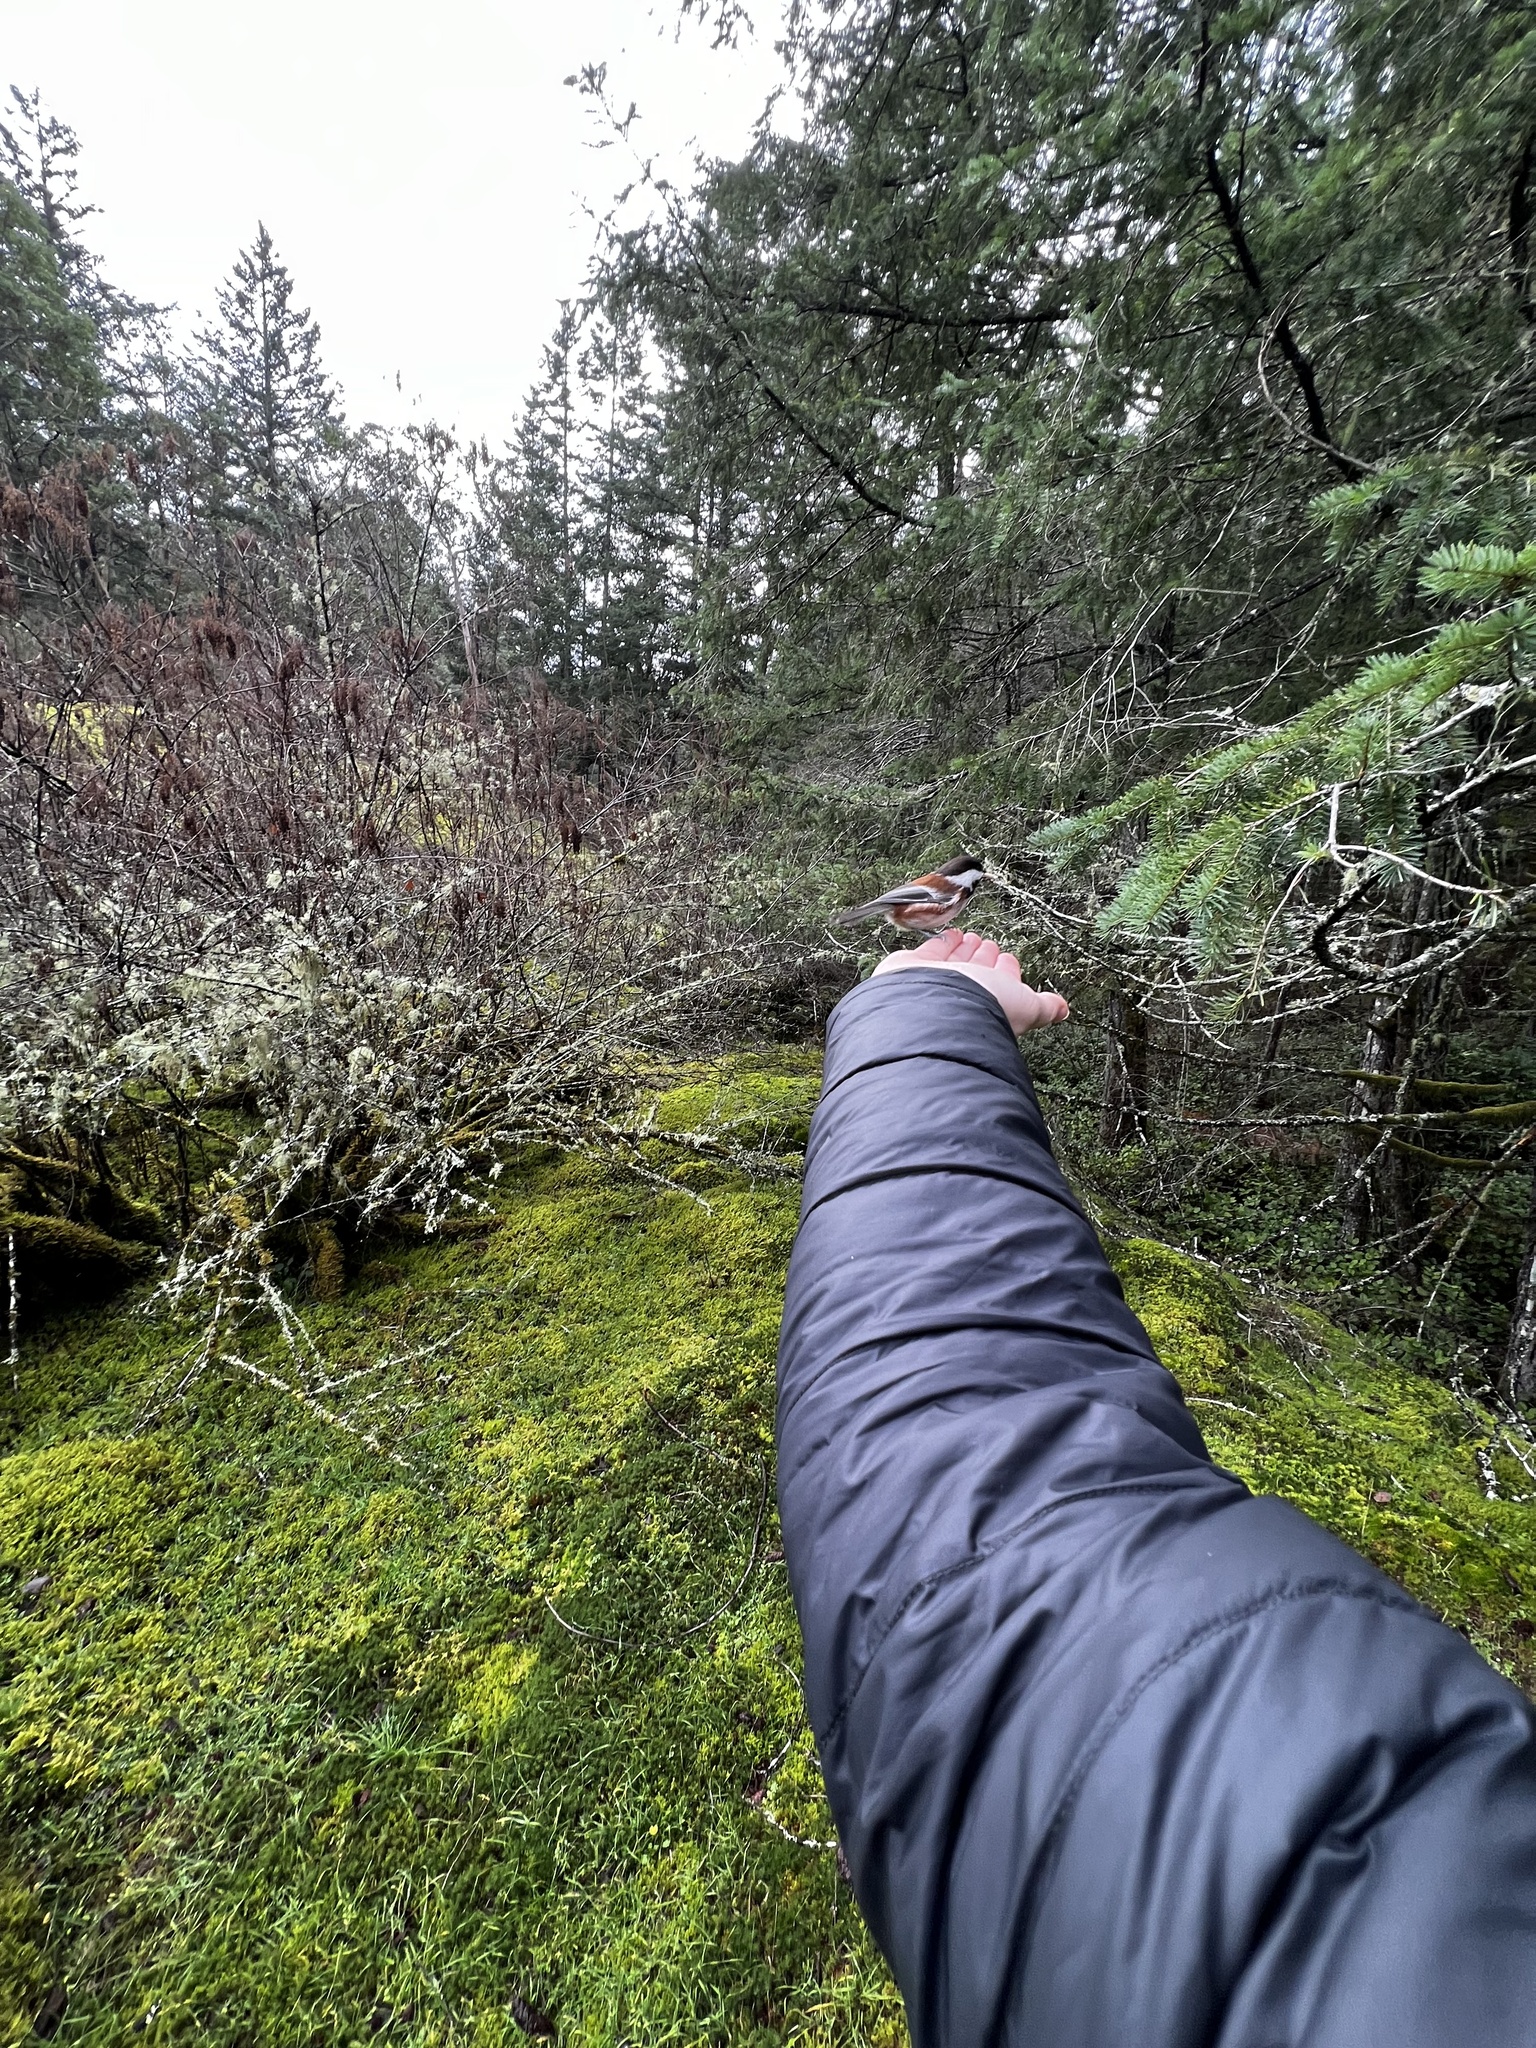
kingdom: Animalia
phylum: Chordata
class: Aves
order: Passeriformes
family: Paridae
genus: Poecile
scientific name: Poecile rufescens
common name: Chestnut-backed chickadee
